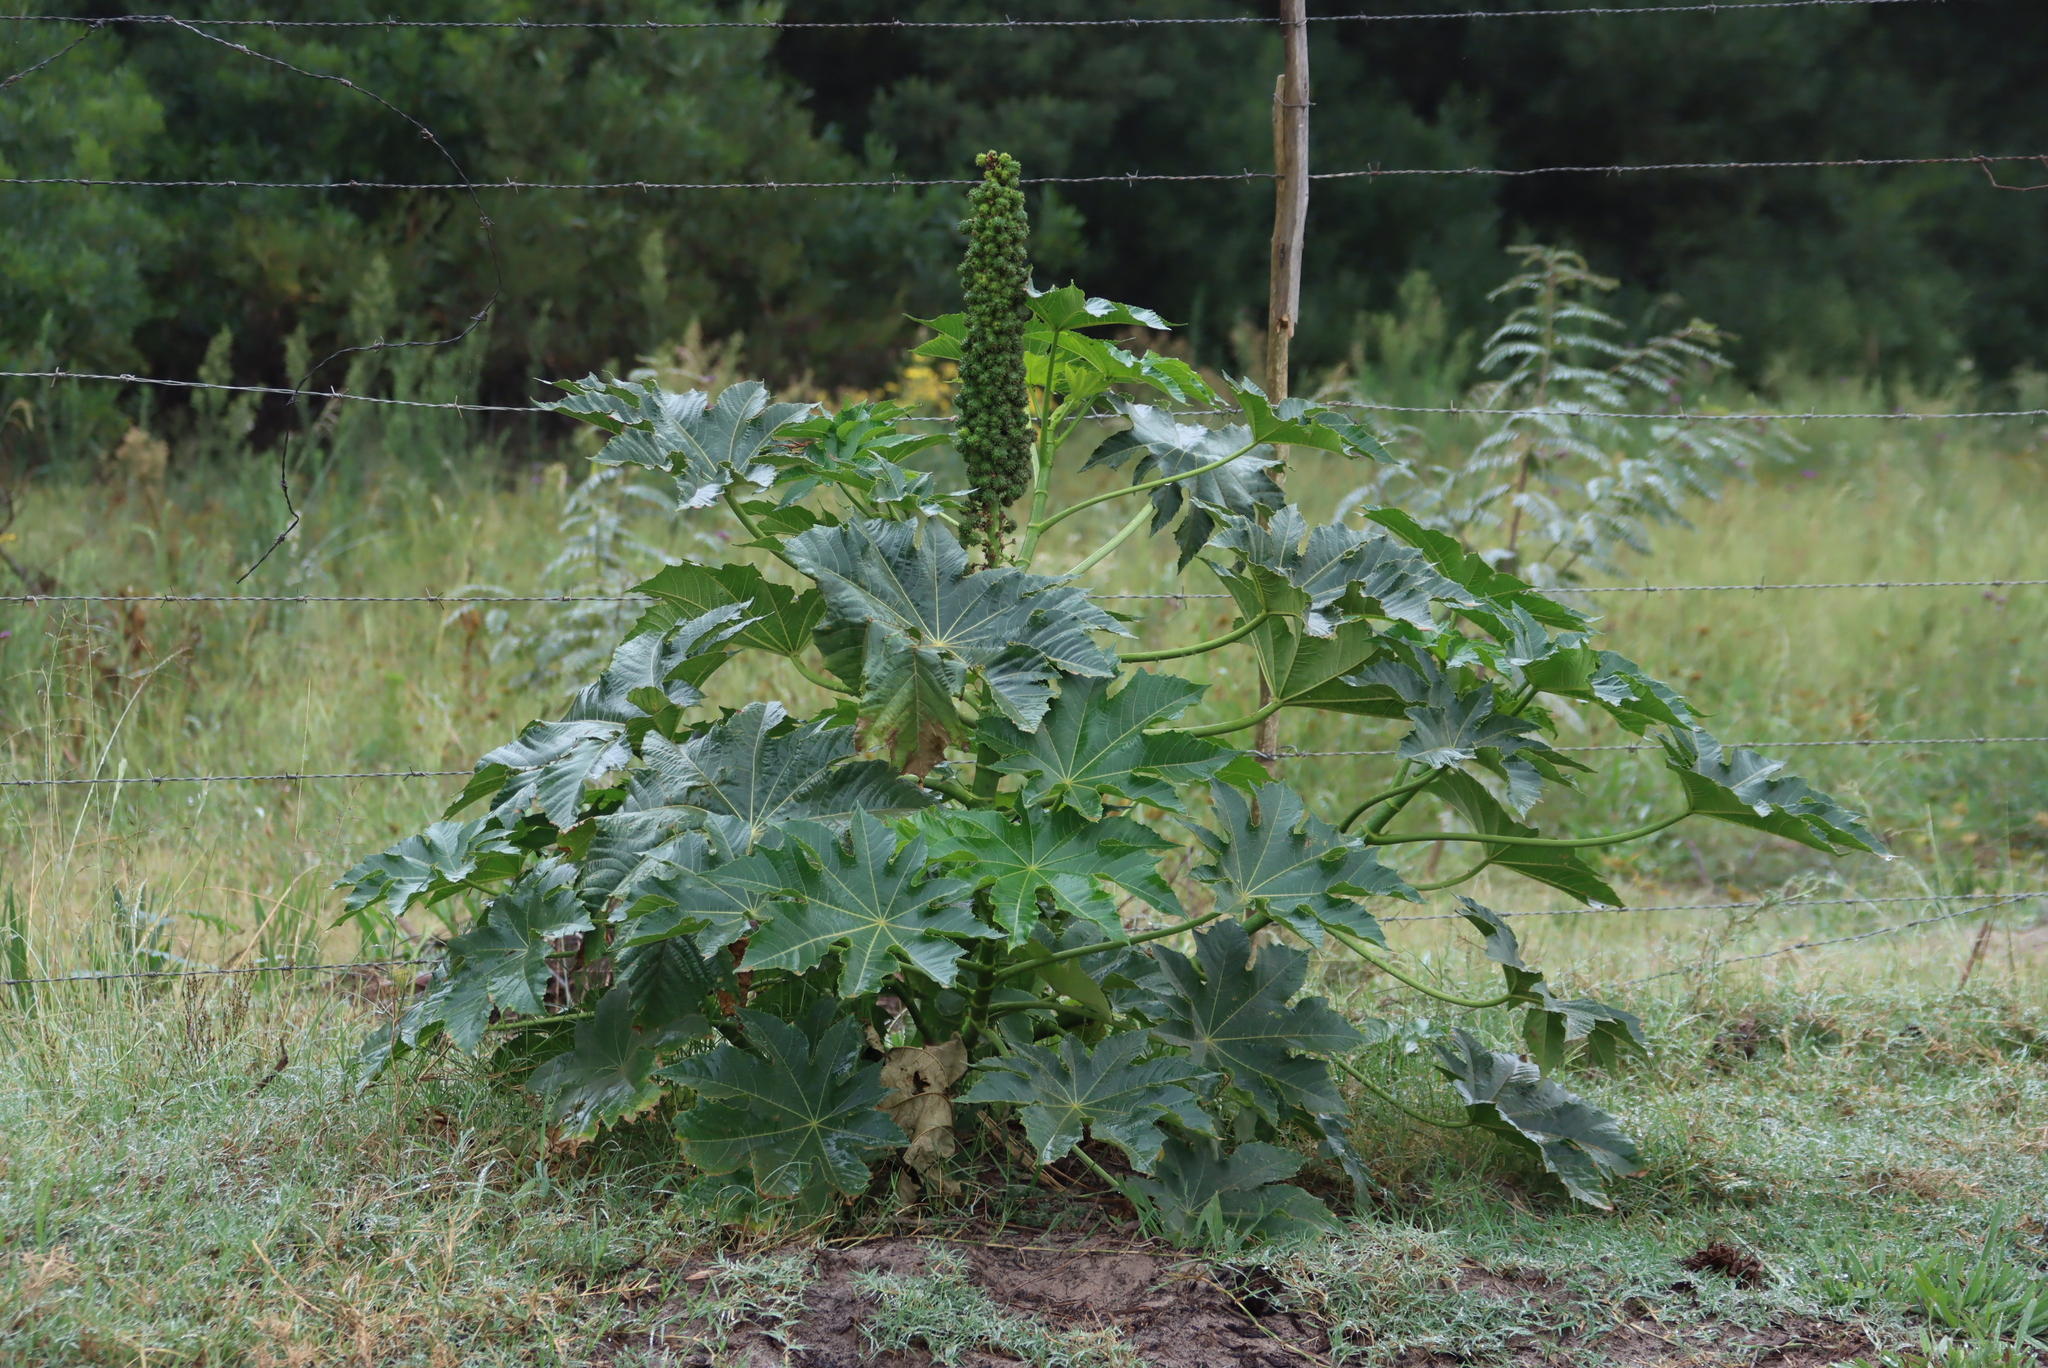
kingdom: Plantae
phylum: Tracheophyta
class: Magnoliopsida
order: Malpighiales
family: Euphorbiaceae
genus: Ricinus
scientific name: Ricinus communis
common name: Castor-oil-plant
